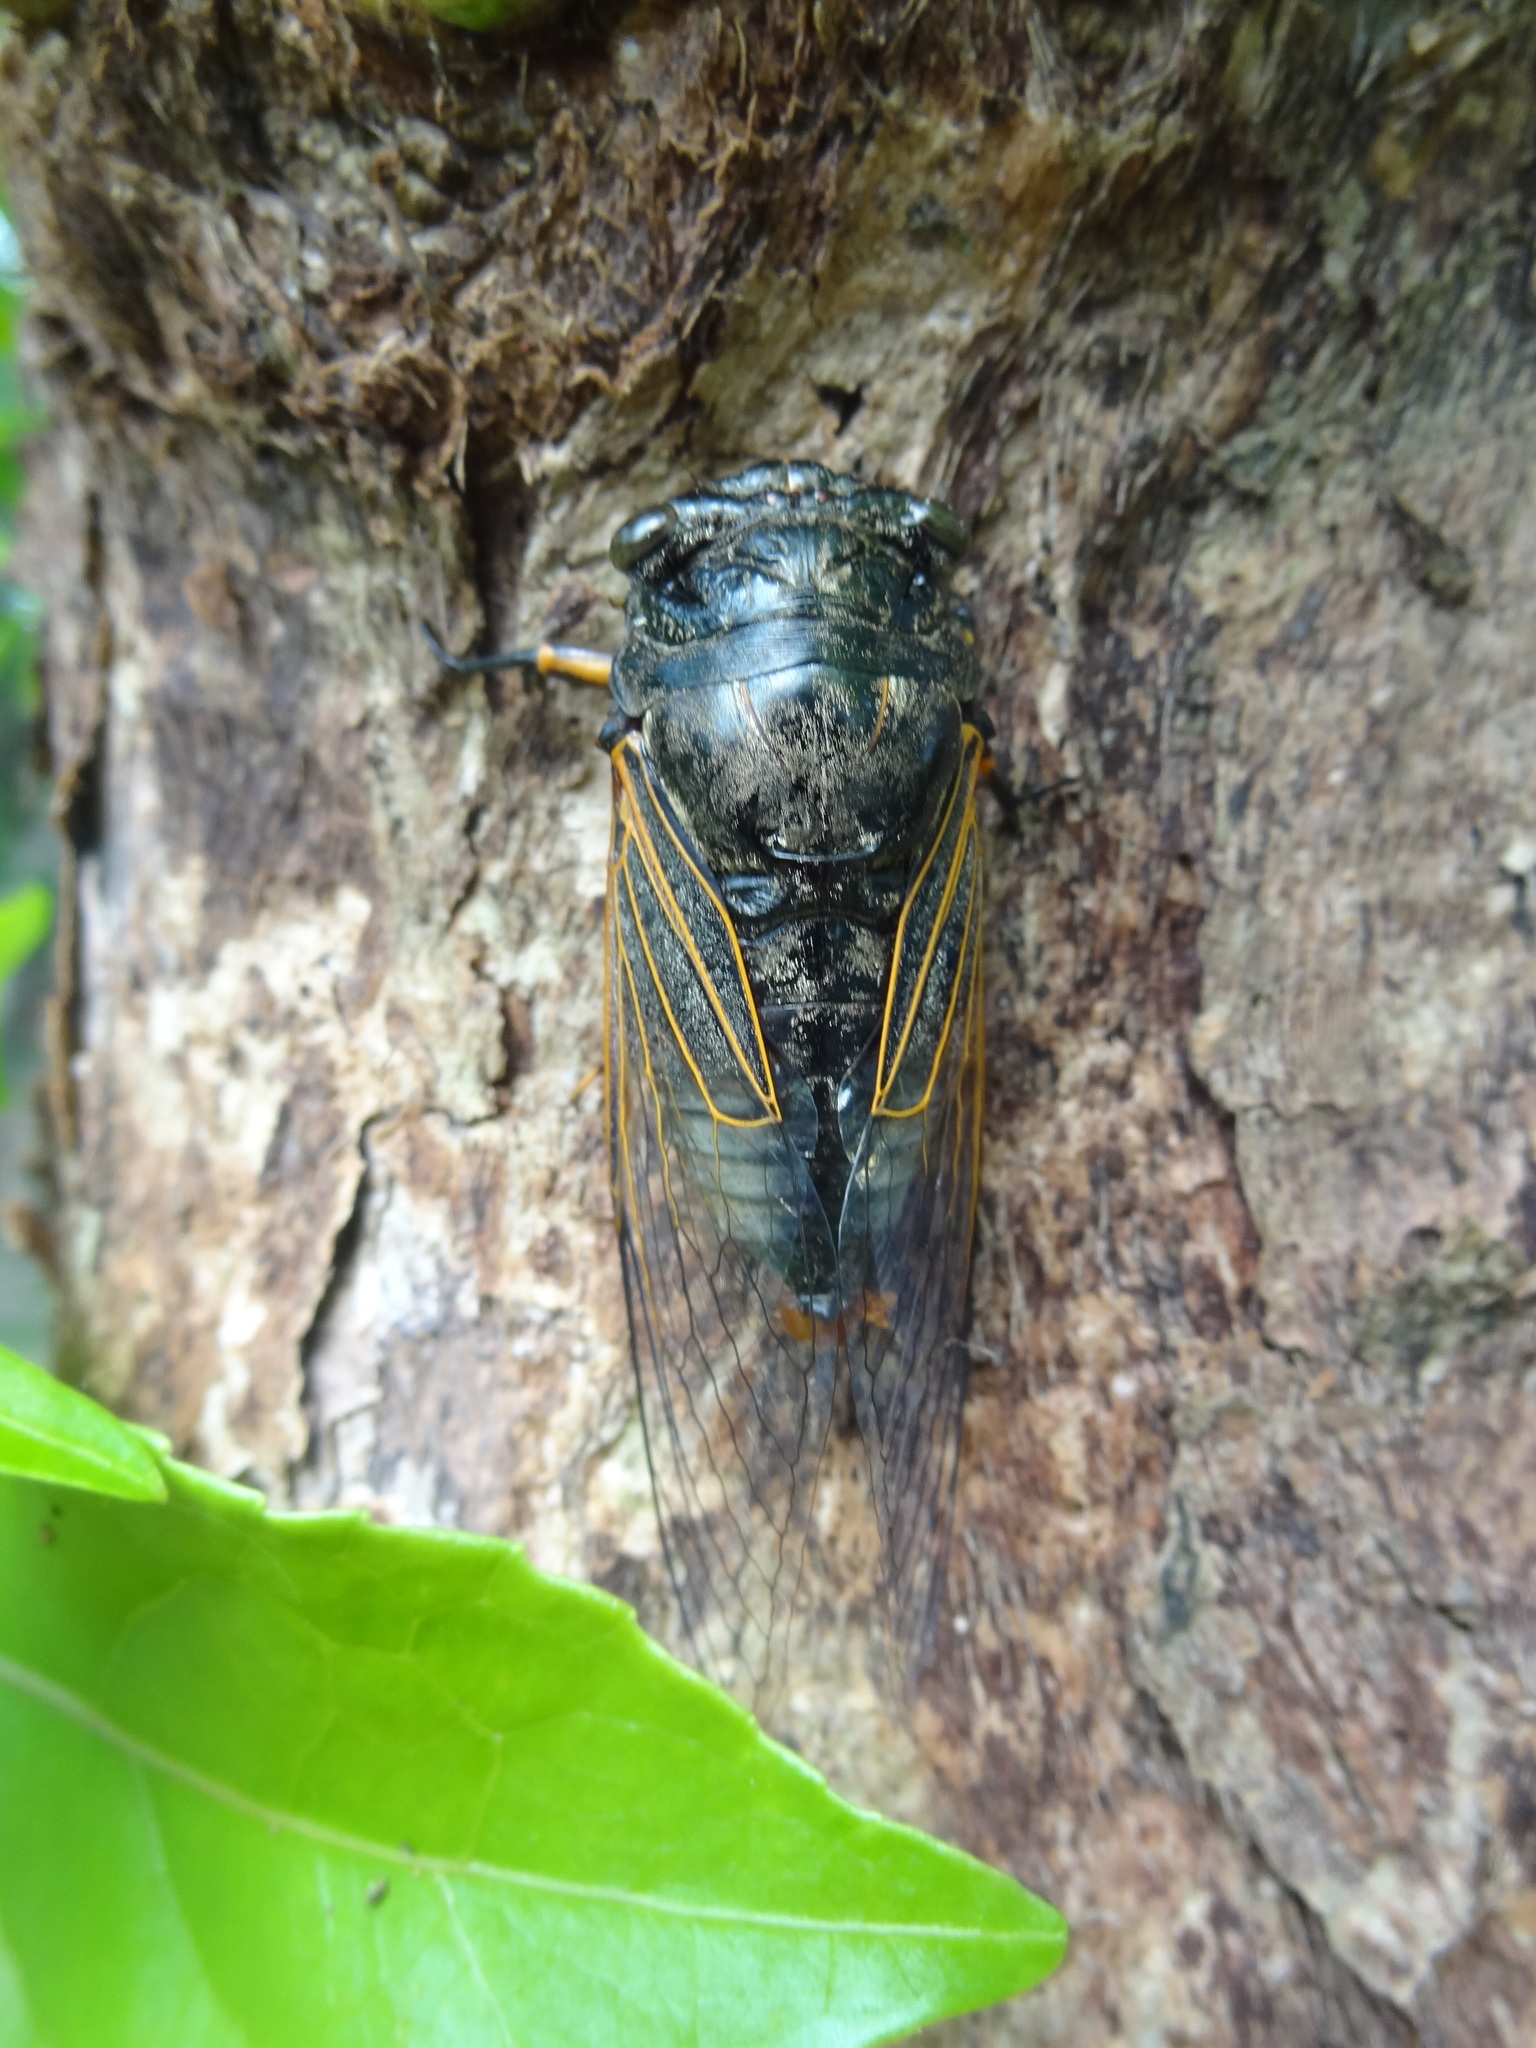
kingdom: Animalia
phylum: Arthropoda
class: Insecta
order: Hemiptera
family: Cicadidae
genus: Cryptotympana
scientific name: Cryptotympana atrata
